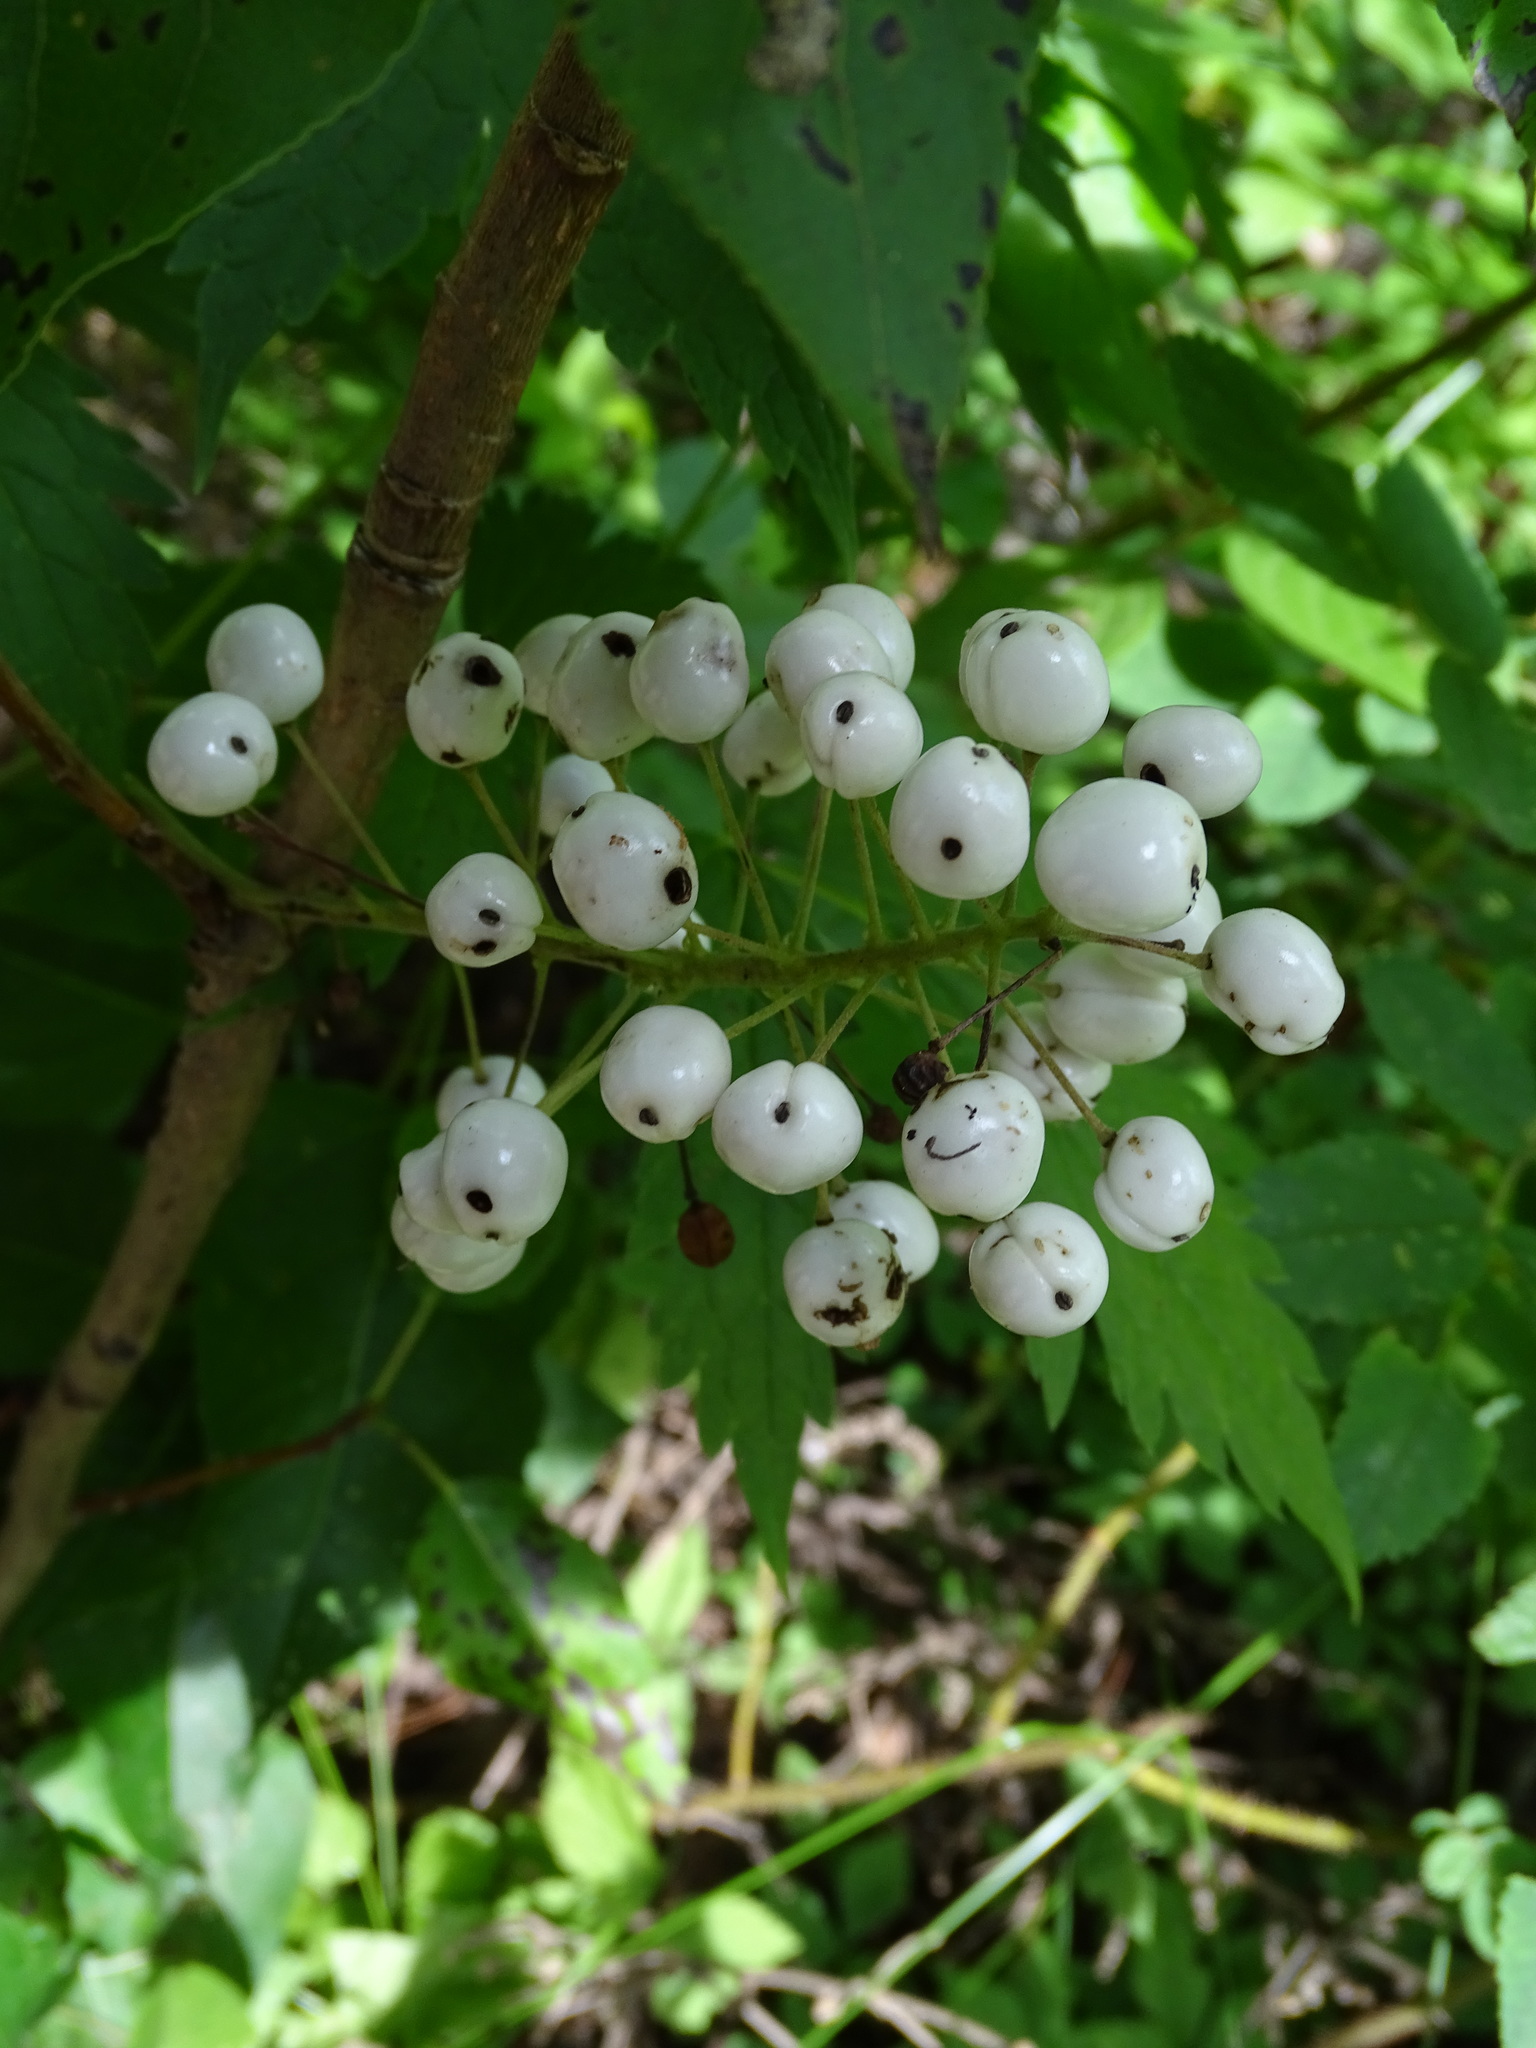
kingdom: Plantae
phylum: Tracheophyta
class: Magnoliopsida
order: Ranunculales
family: Ranunculaceae
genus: Actaea
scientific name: Actaea rubra
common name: Red baneberry
